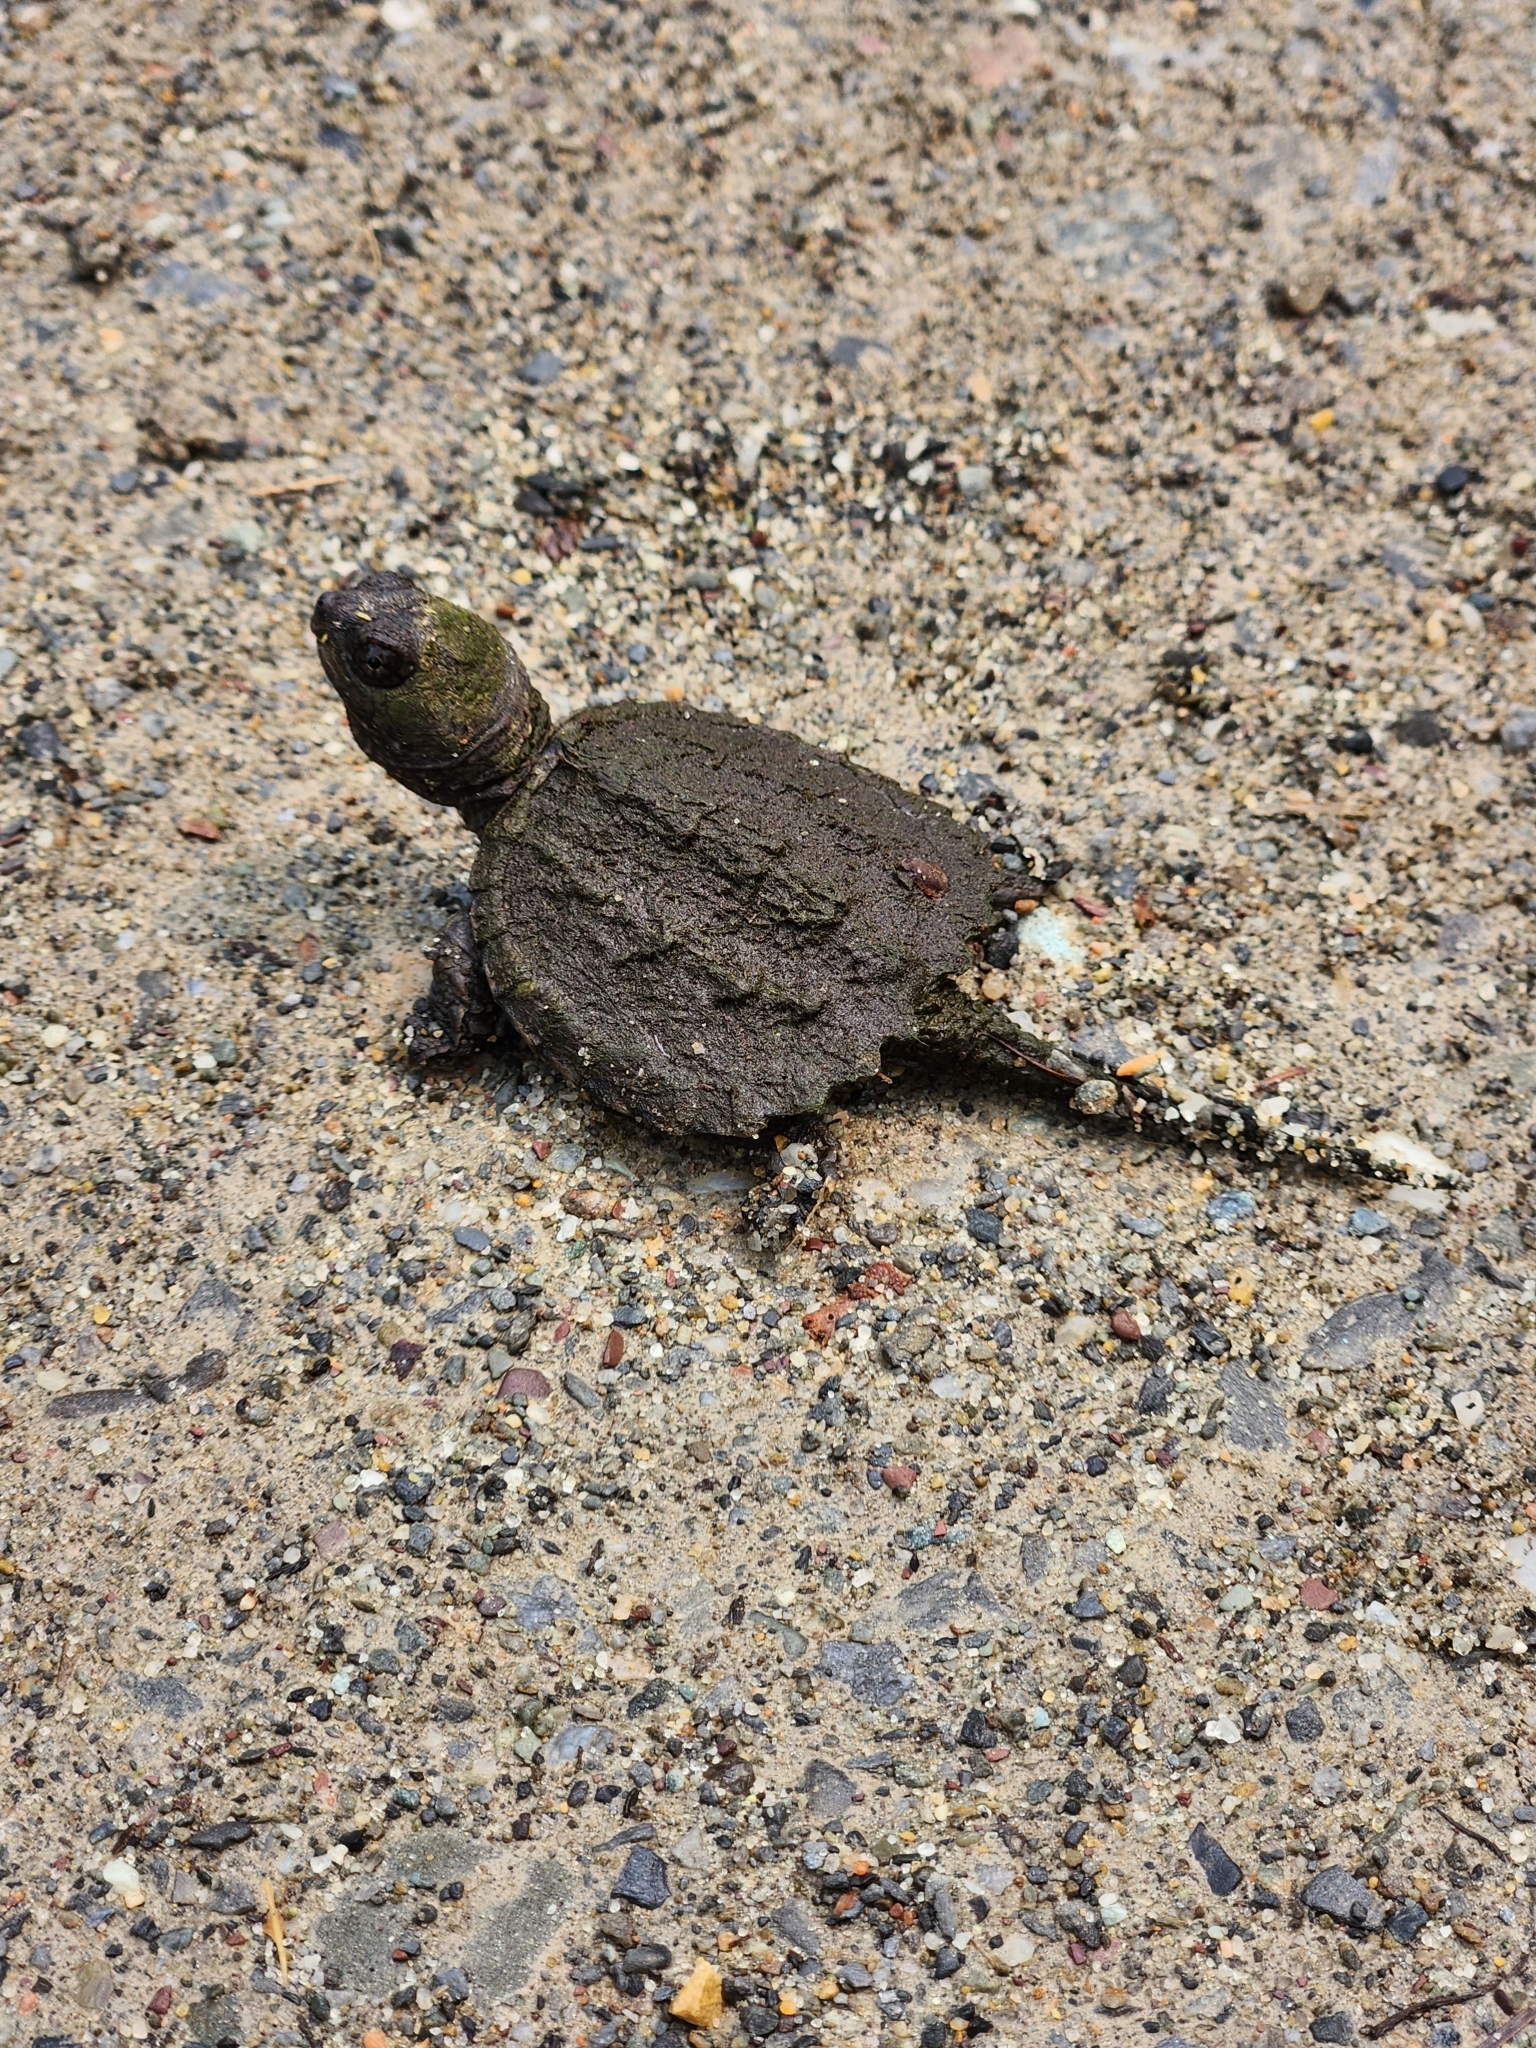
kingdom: Animalia
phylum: Chordata
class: Testudines
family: Chelydridae
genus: Chelydra
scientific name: Chelydra serpentina
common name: Common snapping turtle
